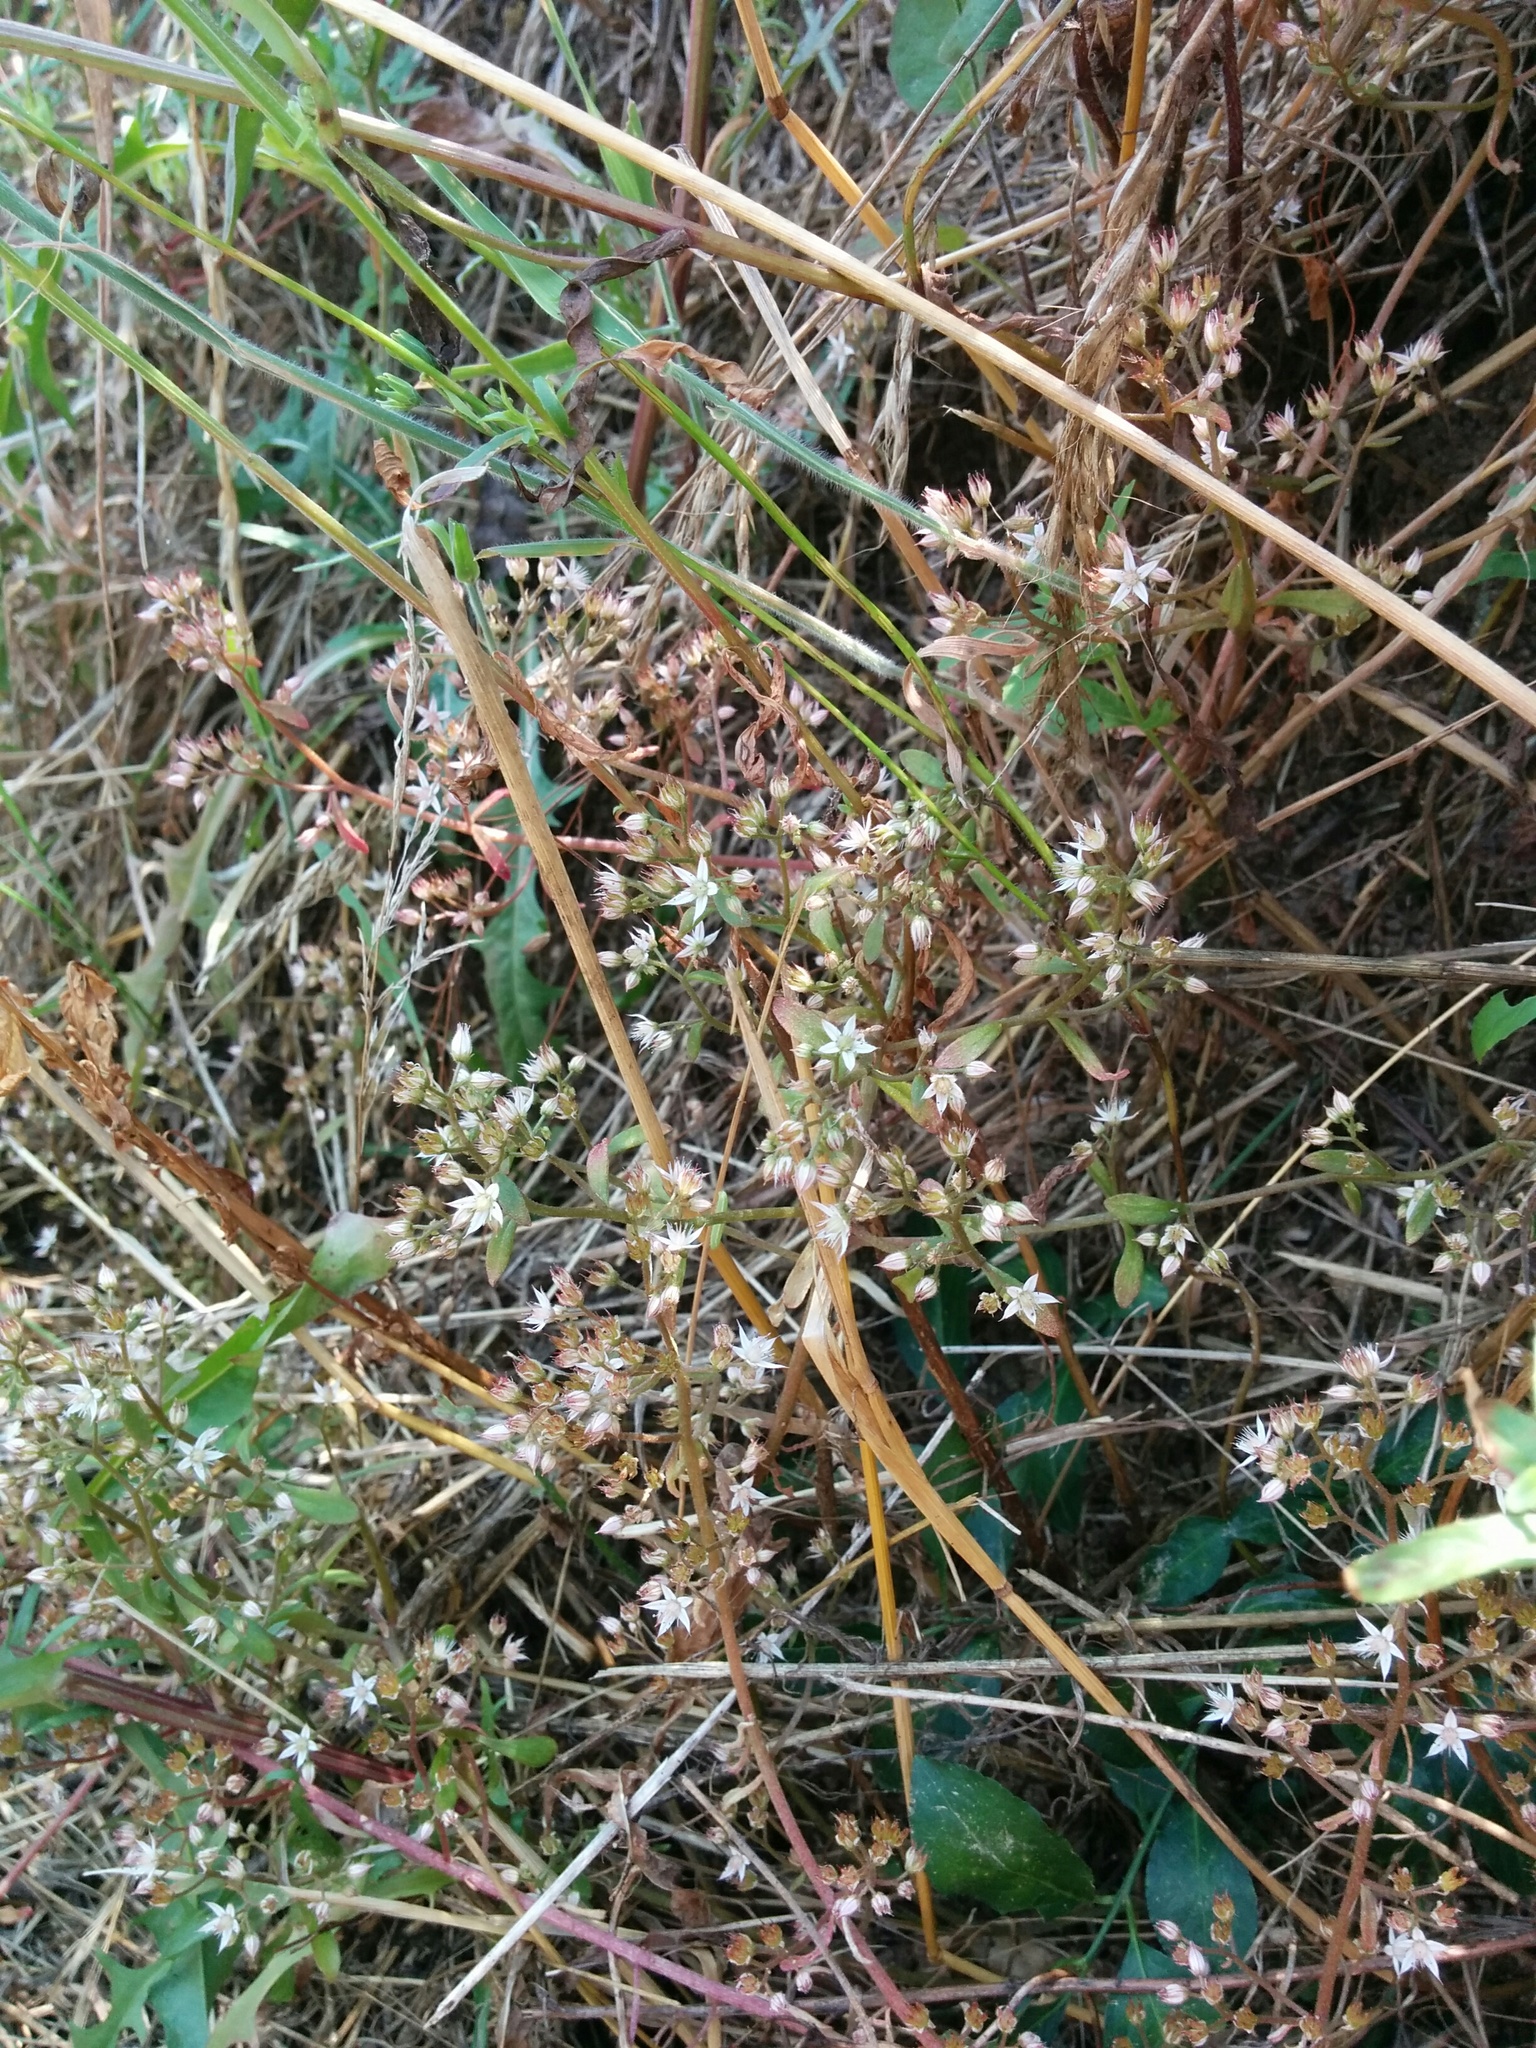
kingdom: Plantae
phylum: Tracheophyta
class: Magnoliopsida
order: Saxifragales
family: Crassulaceae
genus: Sedum
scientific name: Sedum cepaea
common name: Pink stonecrop
